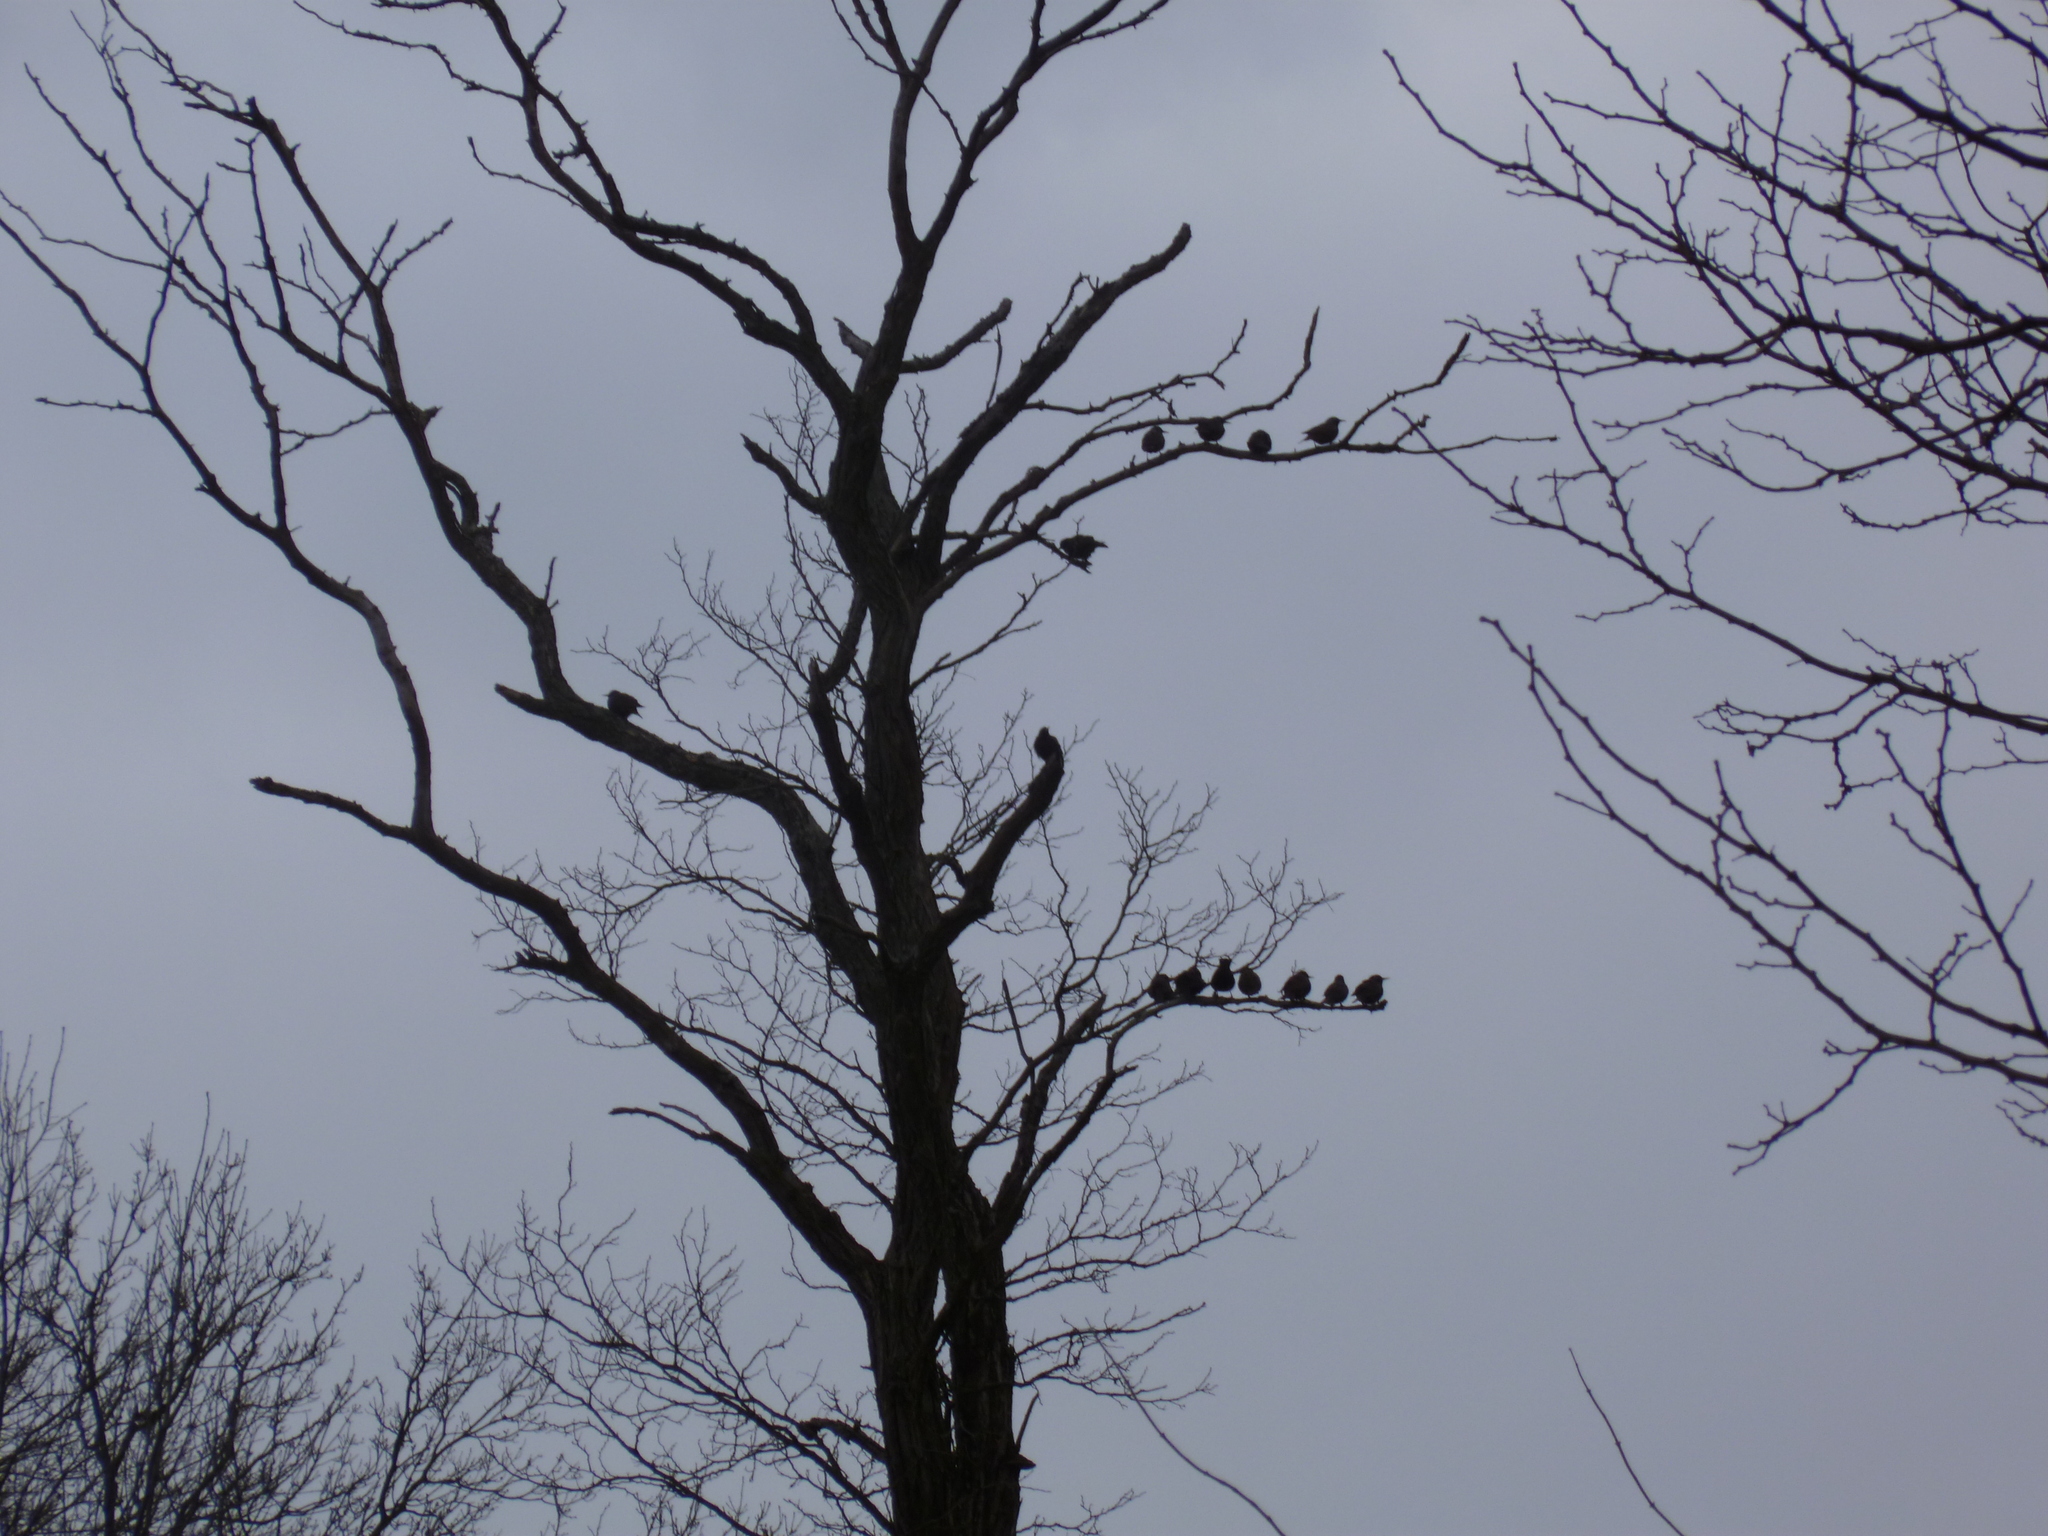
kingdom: Animalia
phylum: Chordata
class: Aves
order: Passeriformes
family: Sturnidae
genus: Sturnus
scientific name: Sturnus vulgaris
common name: Common starling
